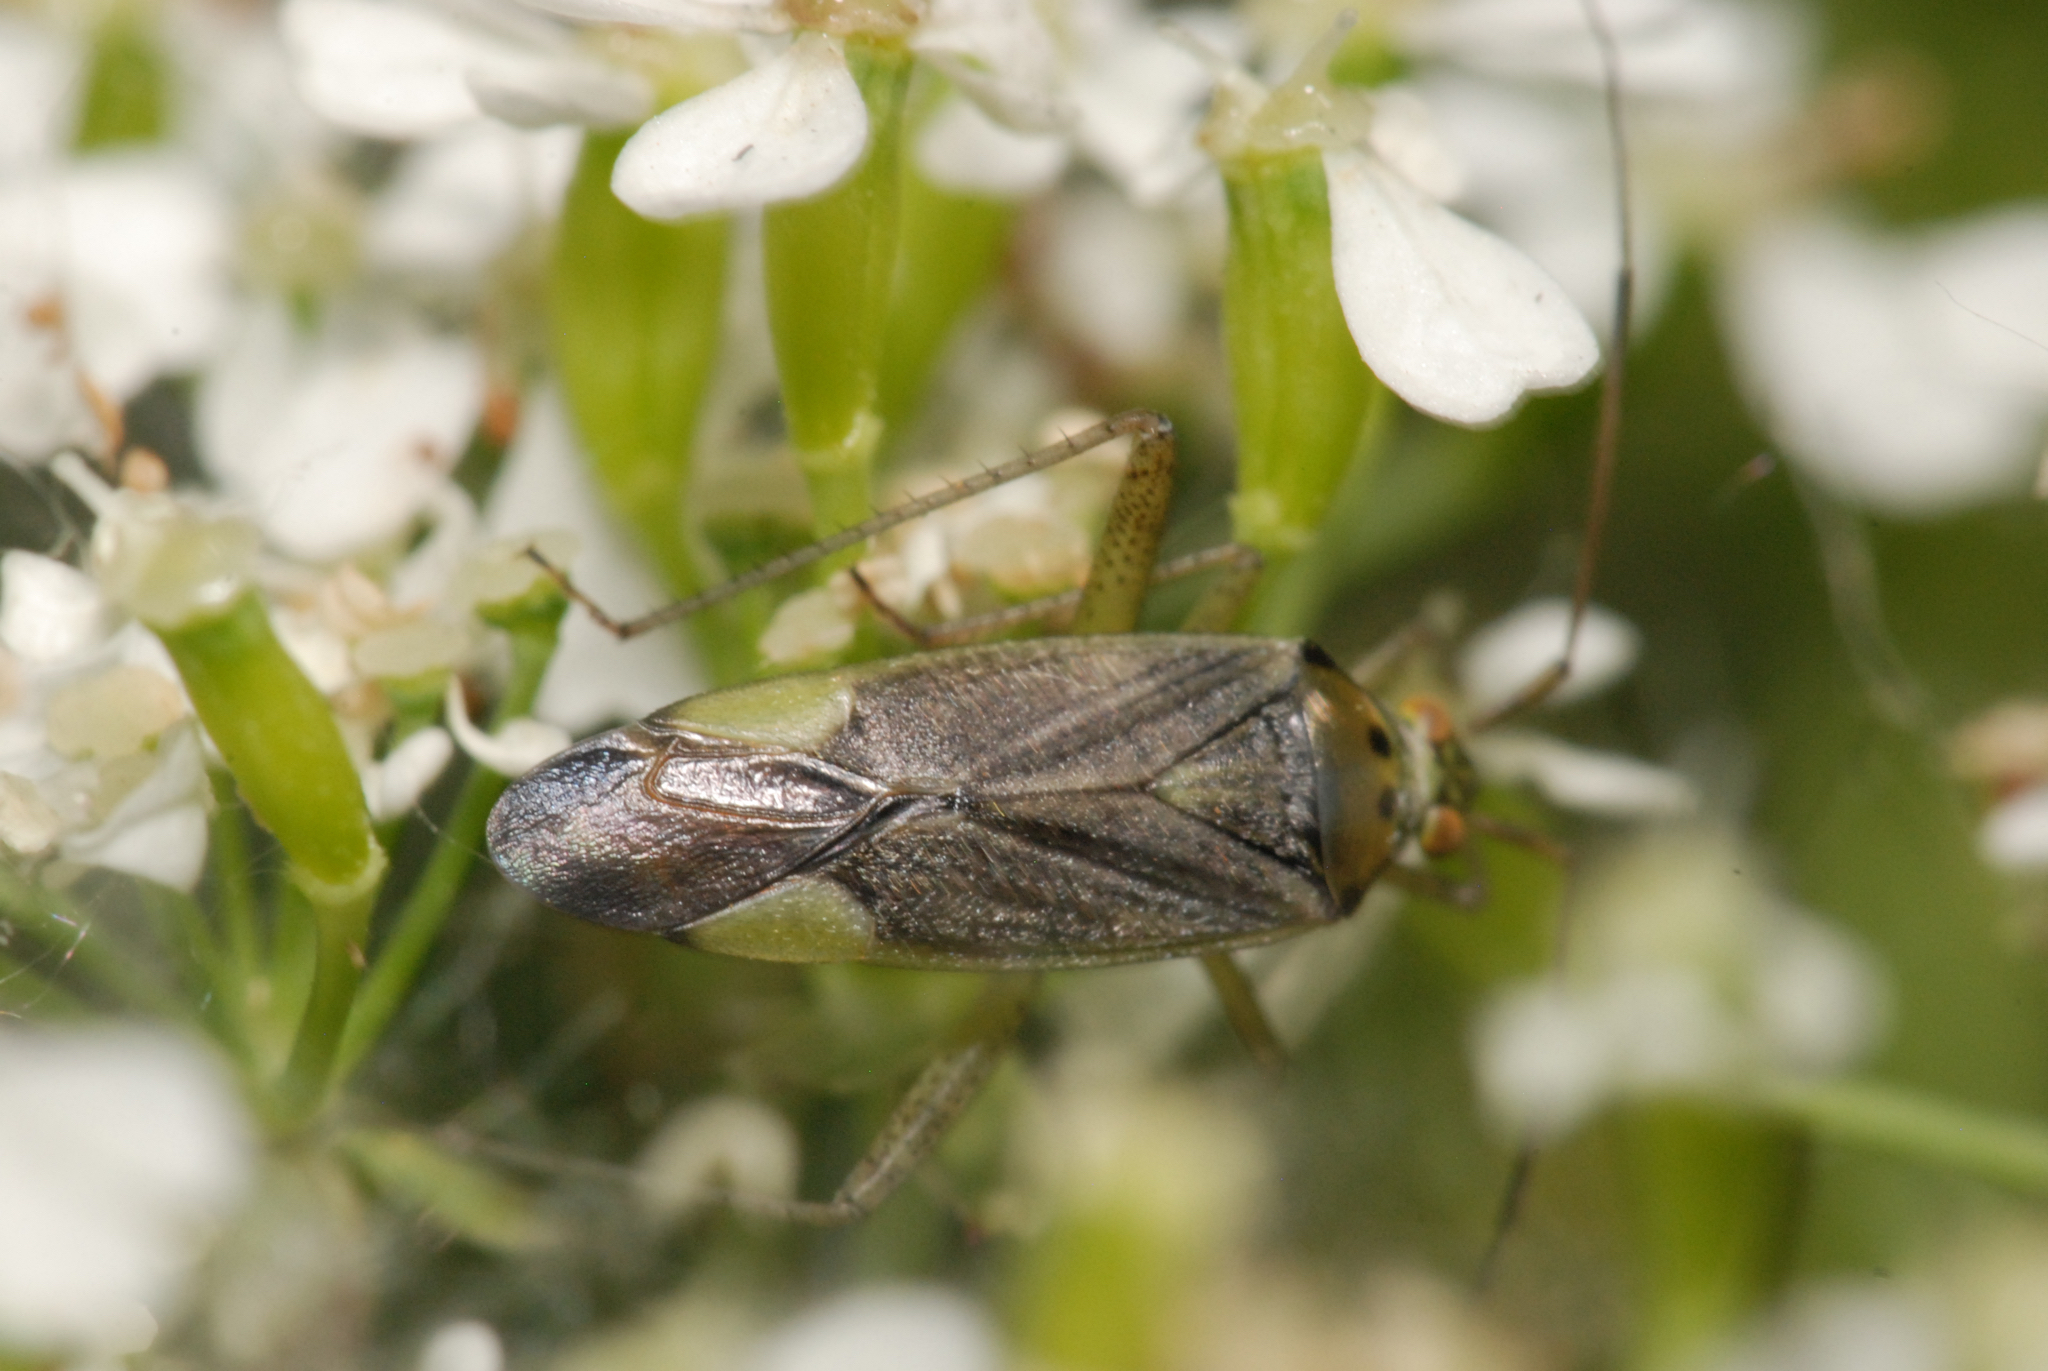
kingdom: Animalia
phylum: Arthropoda
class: Insecta
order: Hemiptera
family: Miridae
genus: Closterotomus
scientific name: Closterotomus trivialis
